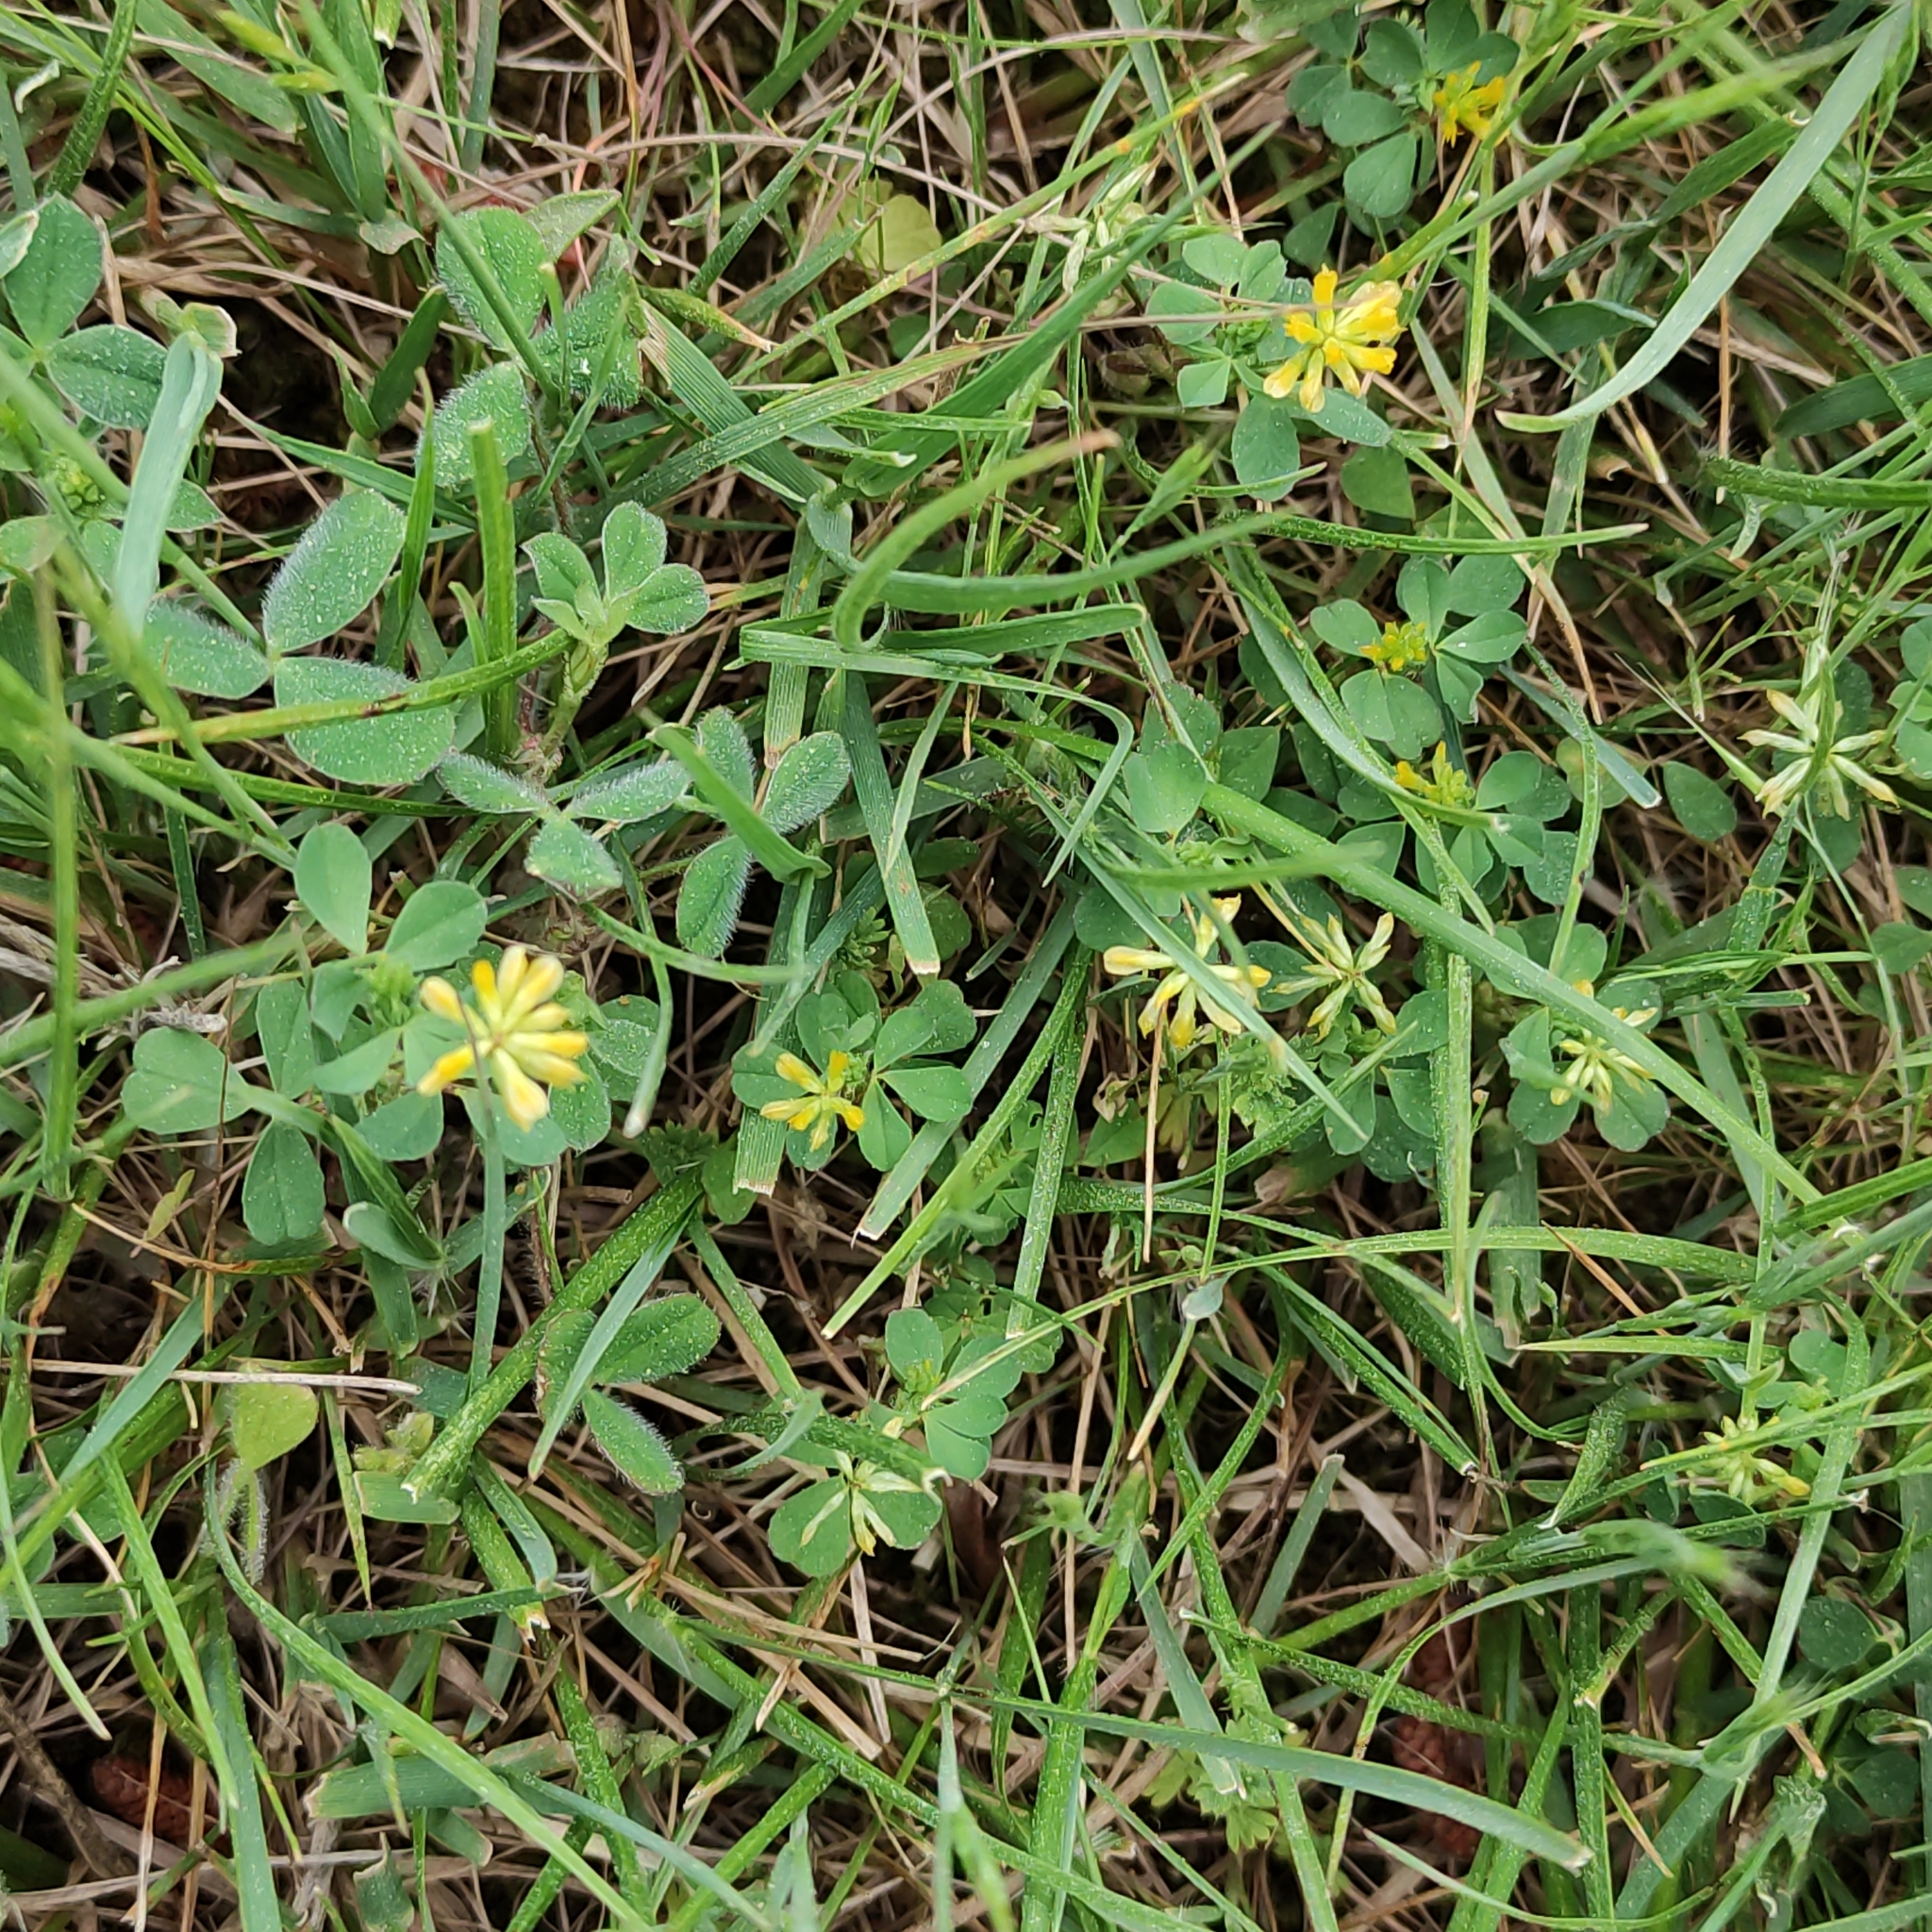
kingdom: Plantae
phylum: Tracheophyta
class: Magnoliopsida
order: Fabales
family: Fabaceae
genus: Trifolium
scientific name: Trifolium dubium
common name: Suckling clover
